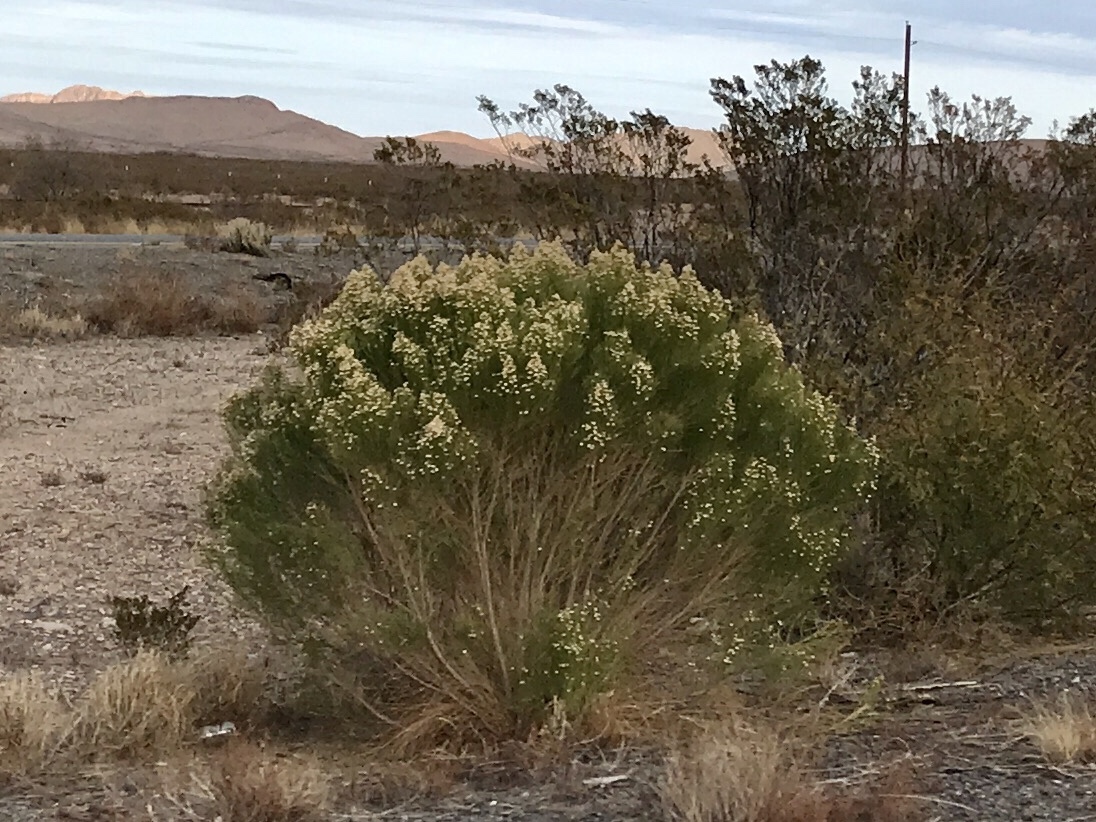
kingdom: Plantae
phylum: Tracheophyta
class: Magnoliopsida
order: Asterales
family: Asteraceae
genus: Baccharis
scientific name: Baccharis sarothroides
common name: Desert-broom
